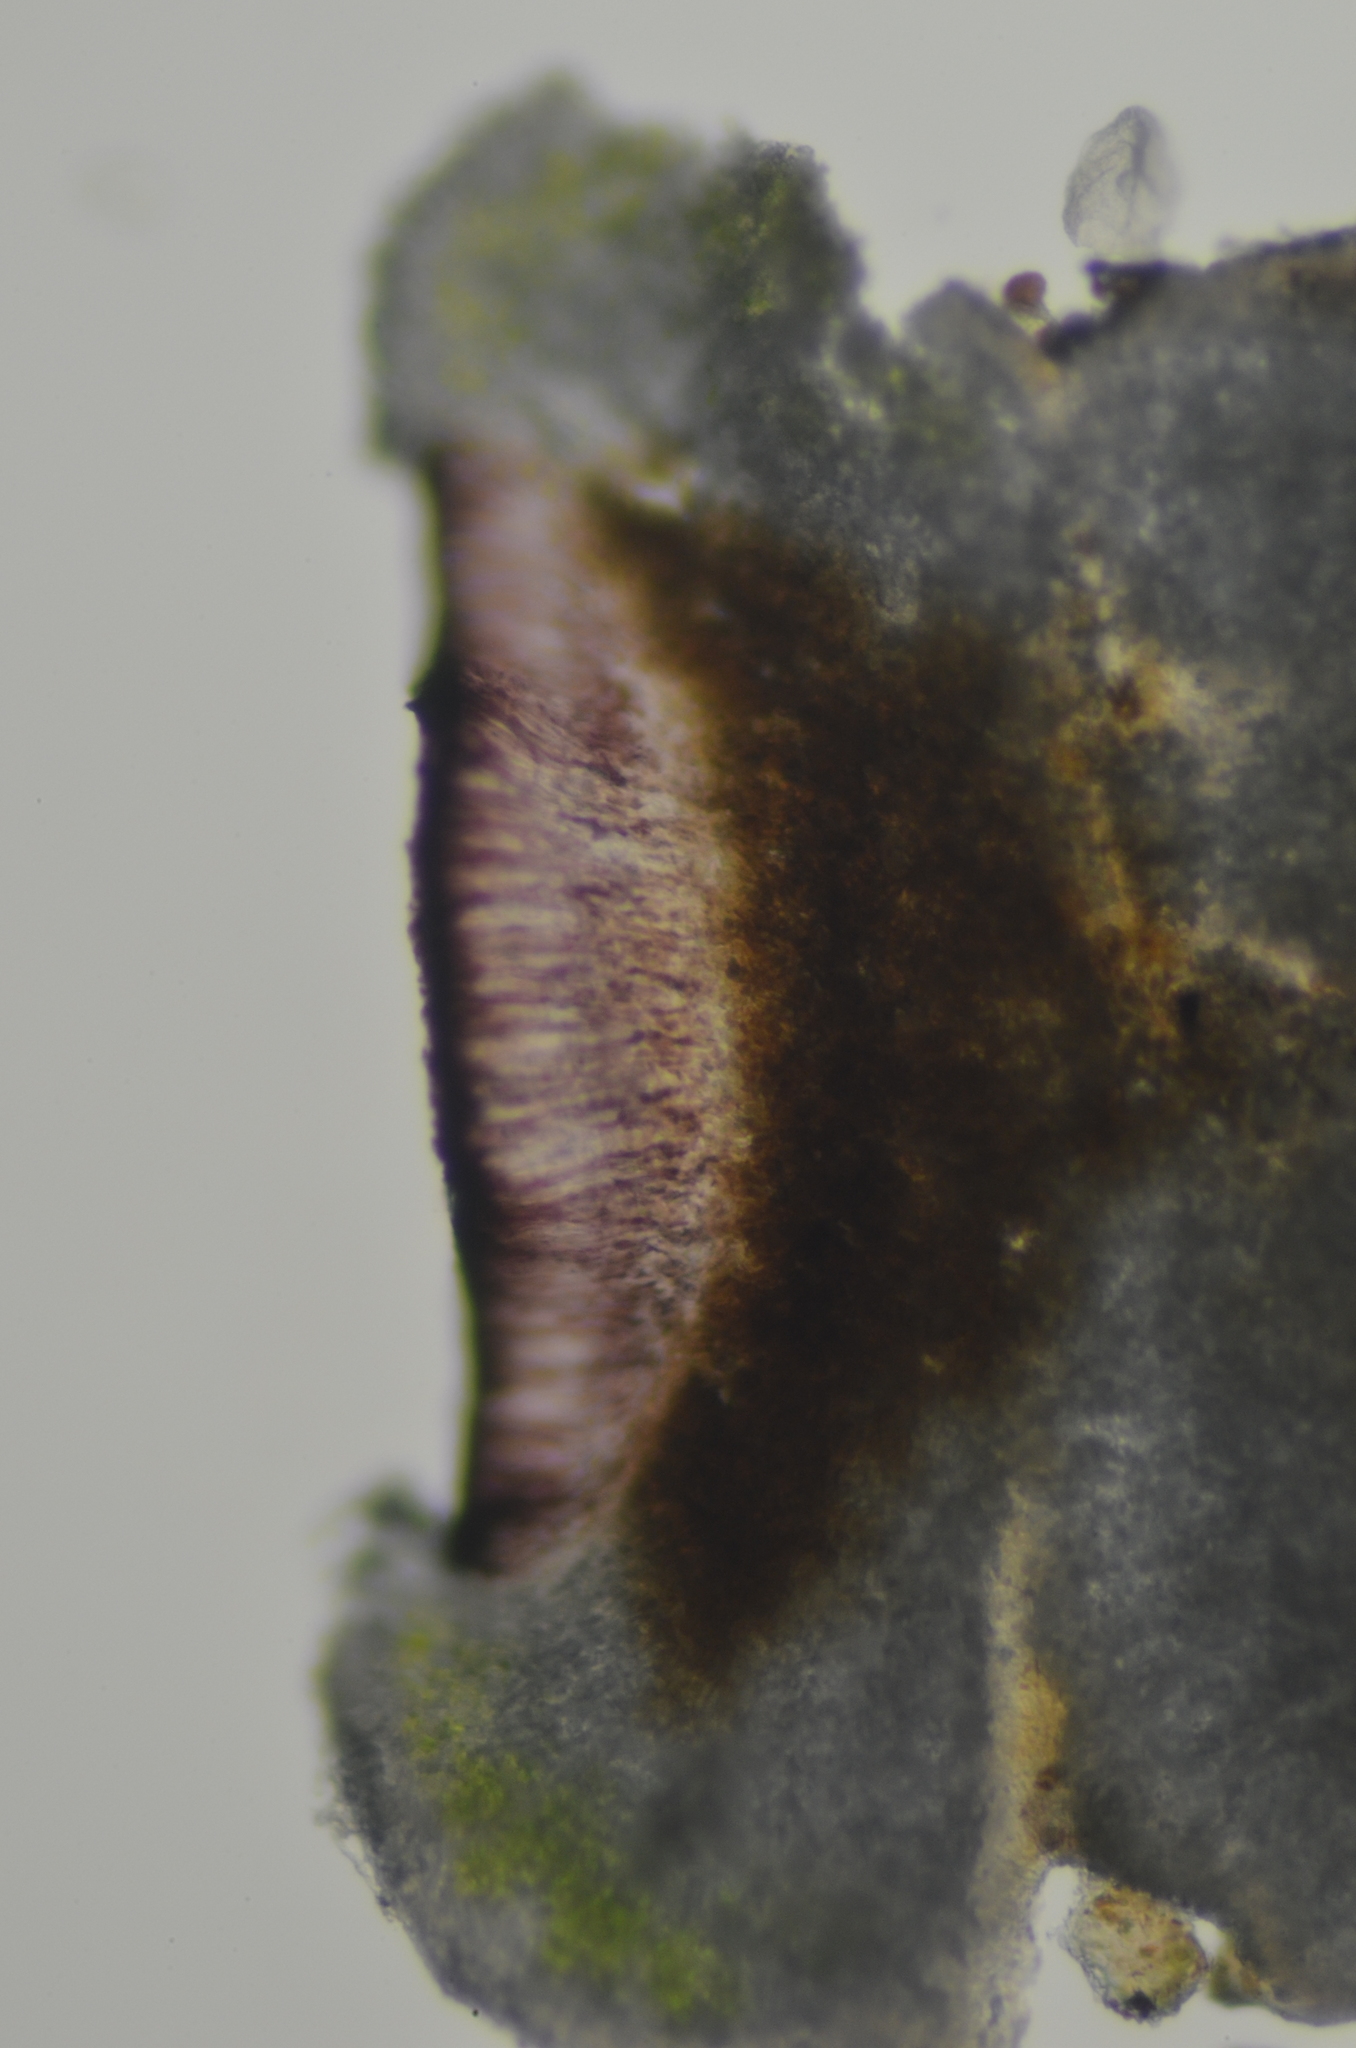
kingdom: Fungi
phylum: Ascomycota
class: Lecanoromycetes
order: Lecanorales
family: Tephromelataceae
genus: Tephromela
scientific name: Tephromela atra
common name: Black shields
